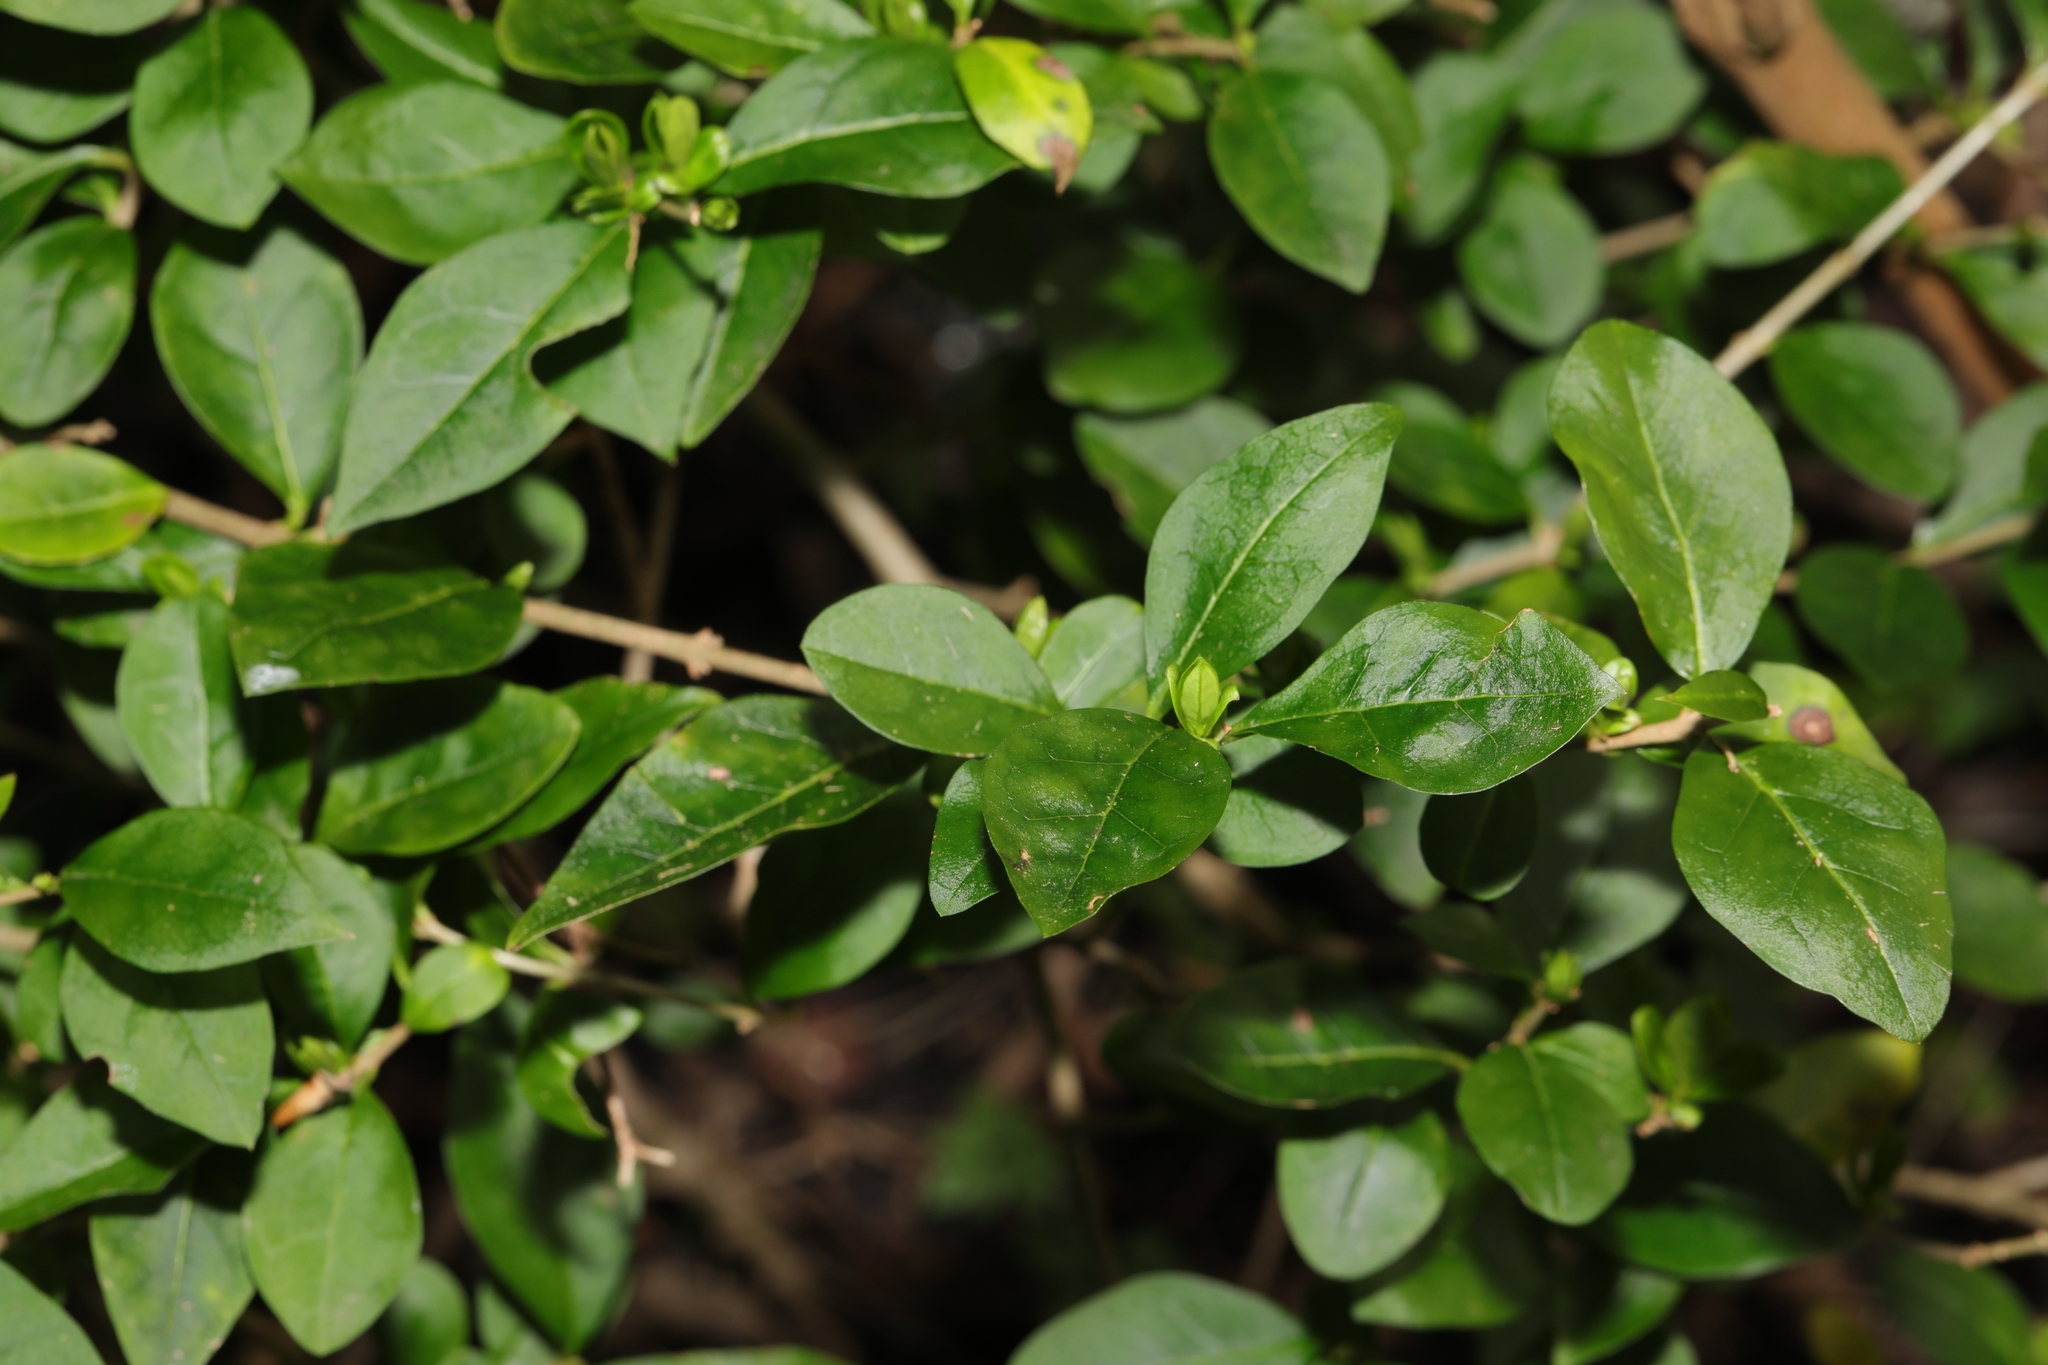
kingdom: Plantae
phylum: Tracheophyta
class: Magnoliopsida
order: Lamiales
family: Oleaceae
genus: Ligustrum
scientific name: Ligustrum ovalifolium
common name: California privet
